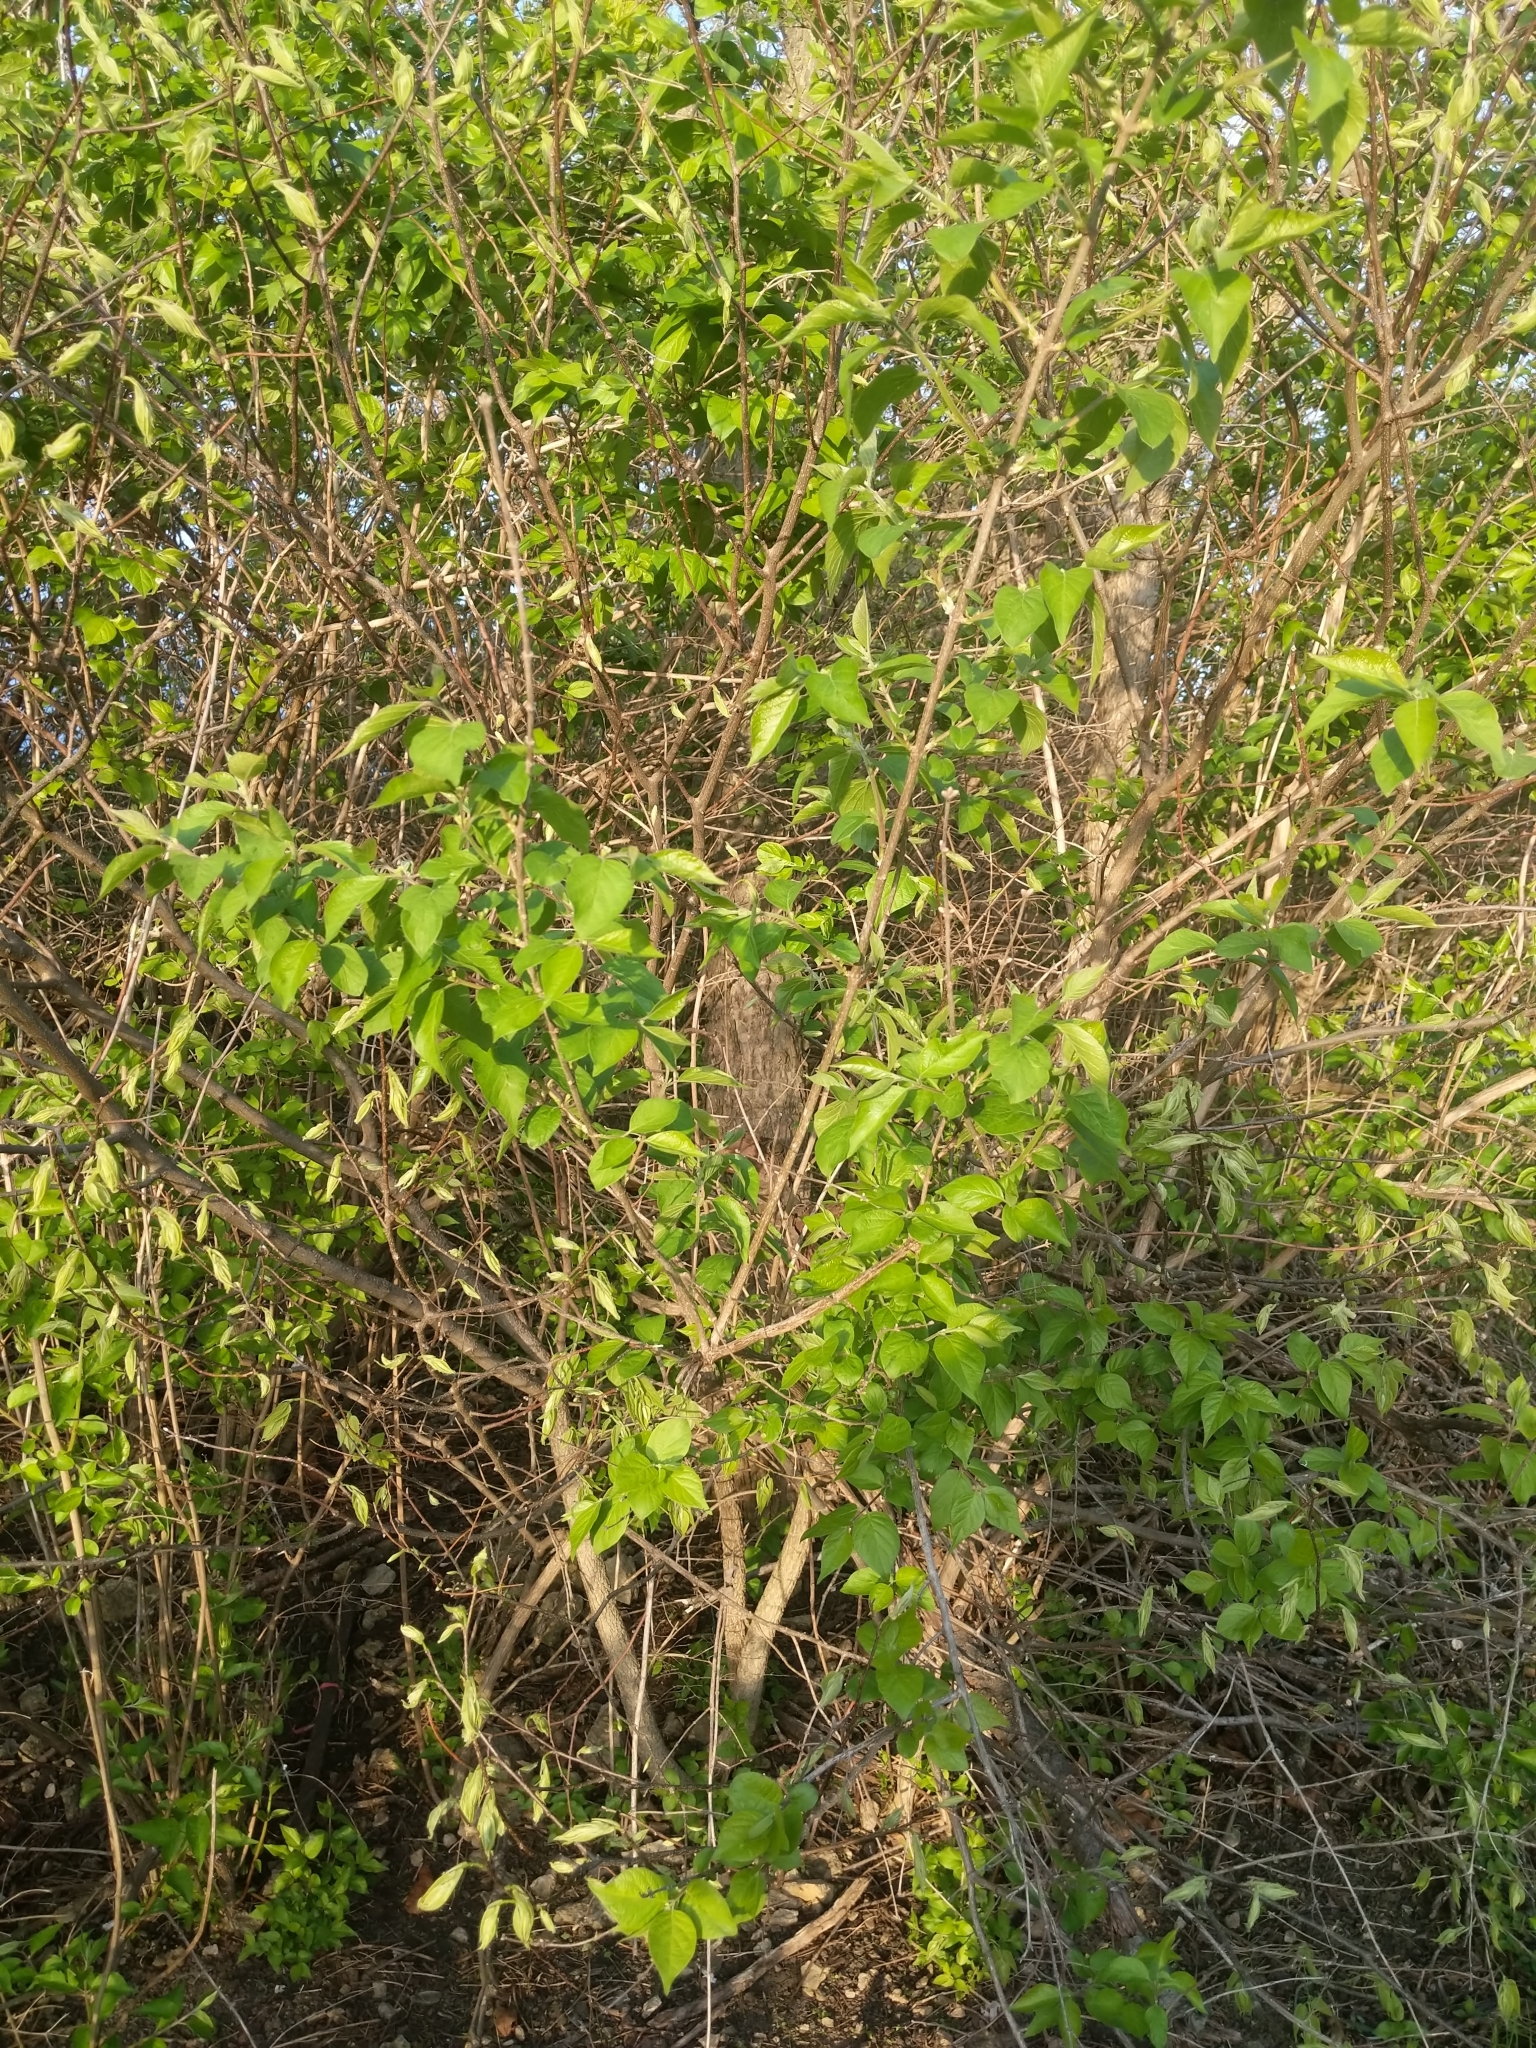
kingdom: Plantae
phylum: Tracheophyta
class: Magnoliopsida
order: Dipsacales
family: Caprifoliaceae
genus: Lonicera
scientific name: Lonicera maackii
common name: Amur honeysuckle
